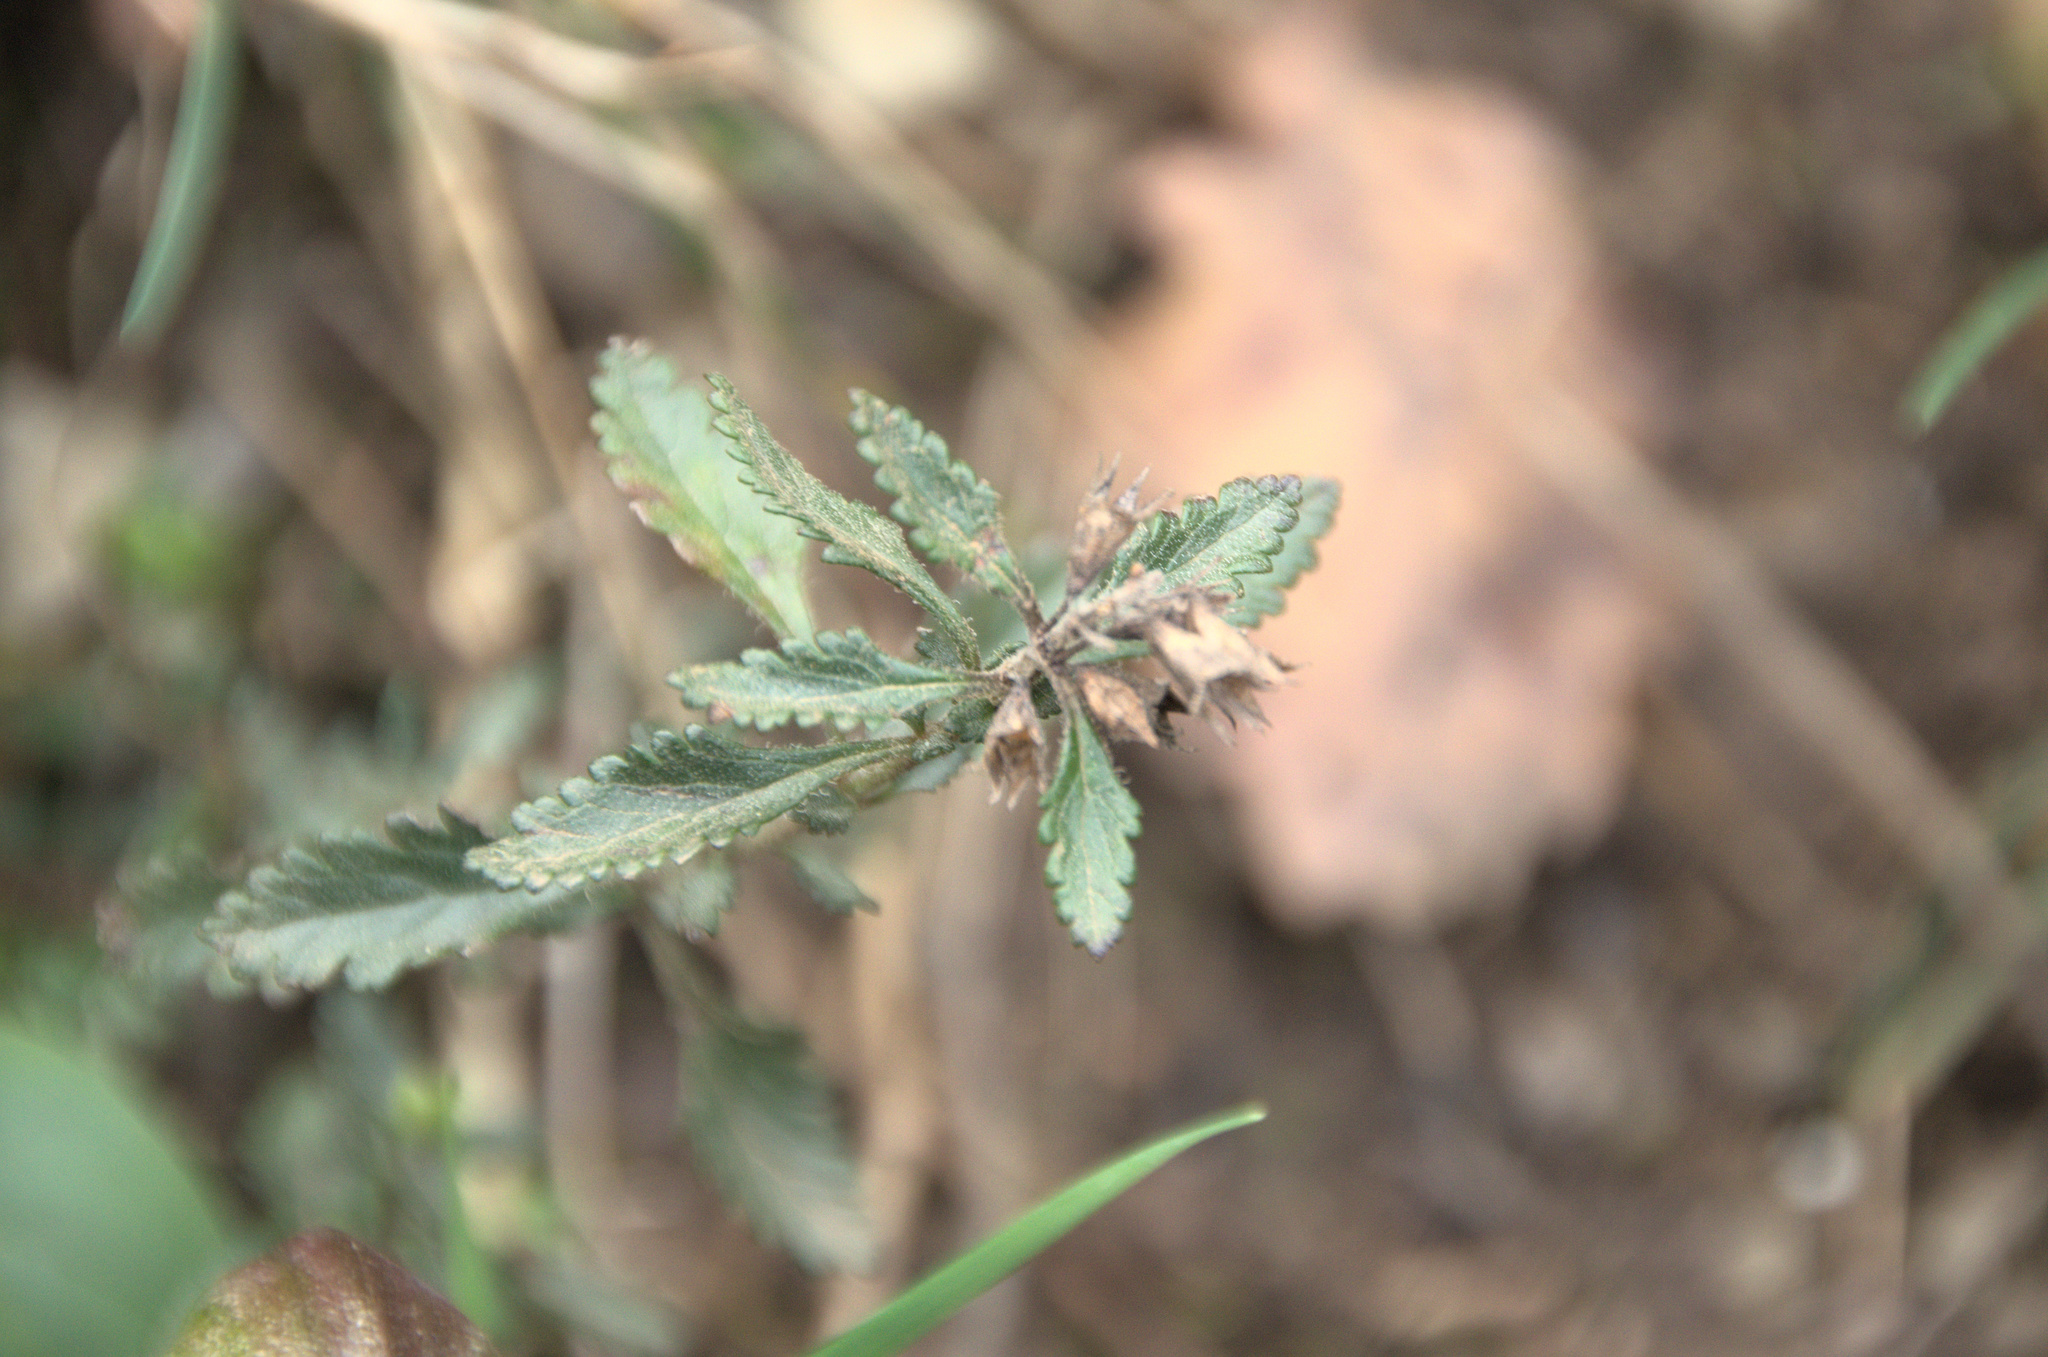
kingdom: Plantae
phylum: Tracheophyta
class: Magnoliopsida
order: Lamiales
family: Lamiaceae
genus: Teucrium
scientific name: Teucrium chamaedrys
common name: Wall germander
